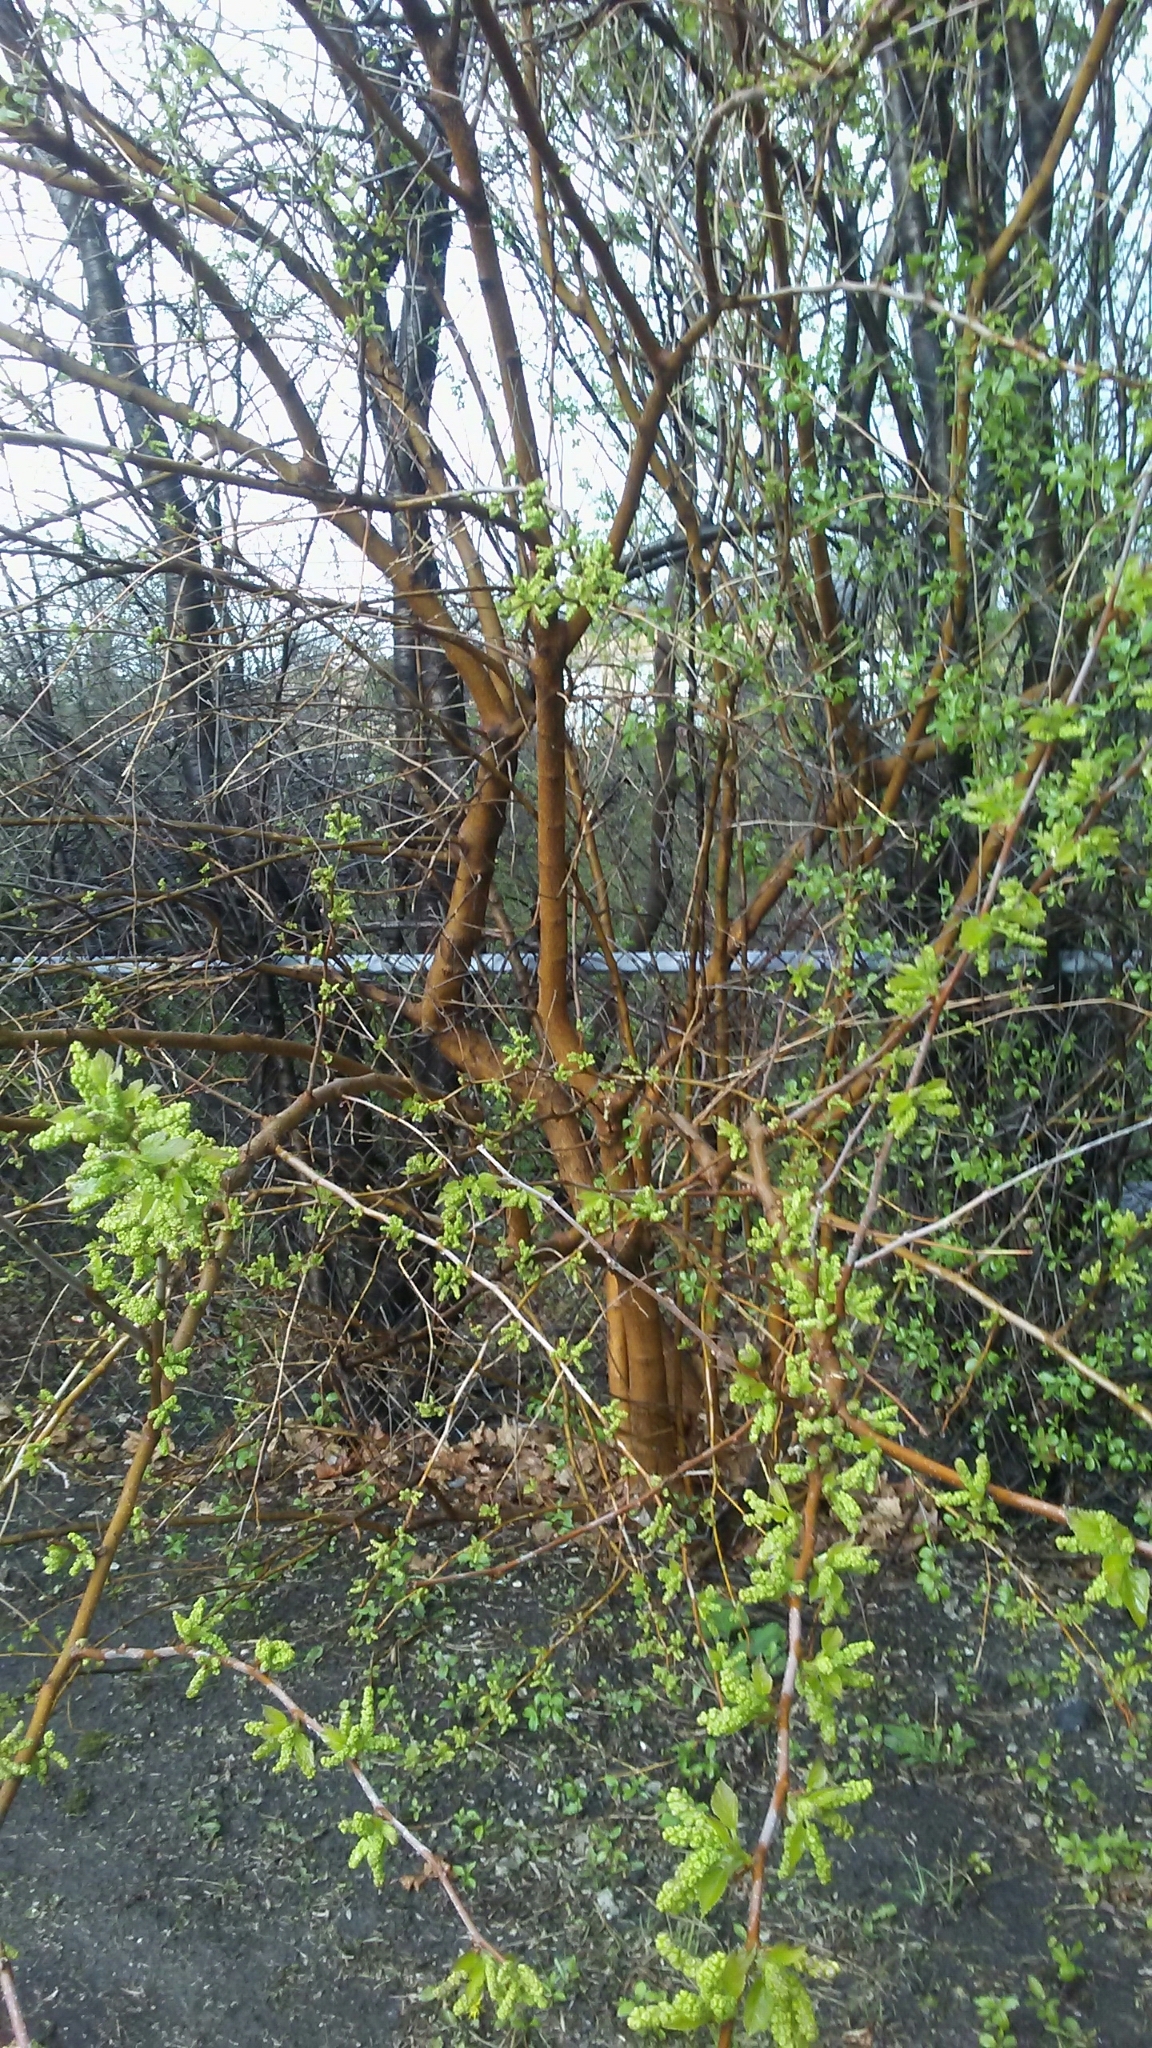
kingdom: Plantae
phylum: Tracheophyta
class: Magnoliopsida
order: Rosales
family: Moraceae
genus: Morus
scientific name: Morus alba
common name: White mulberry
